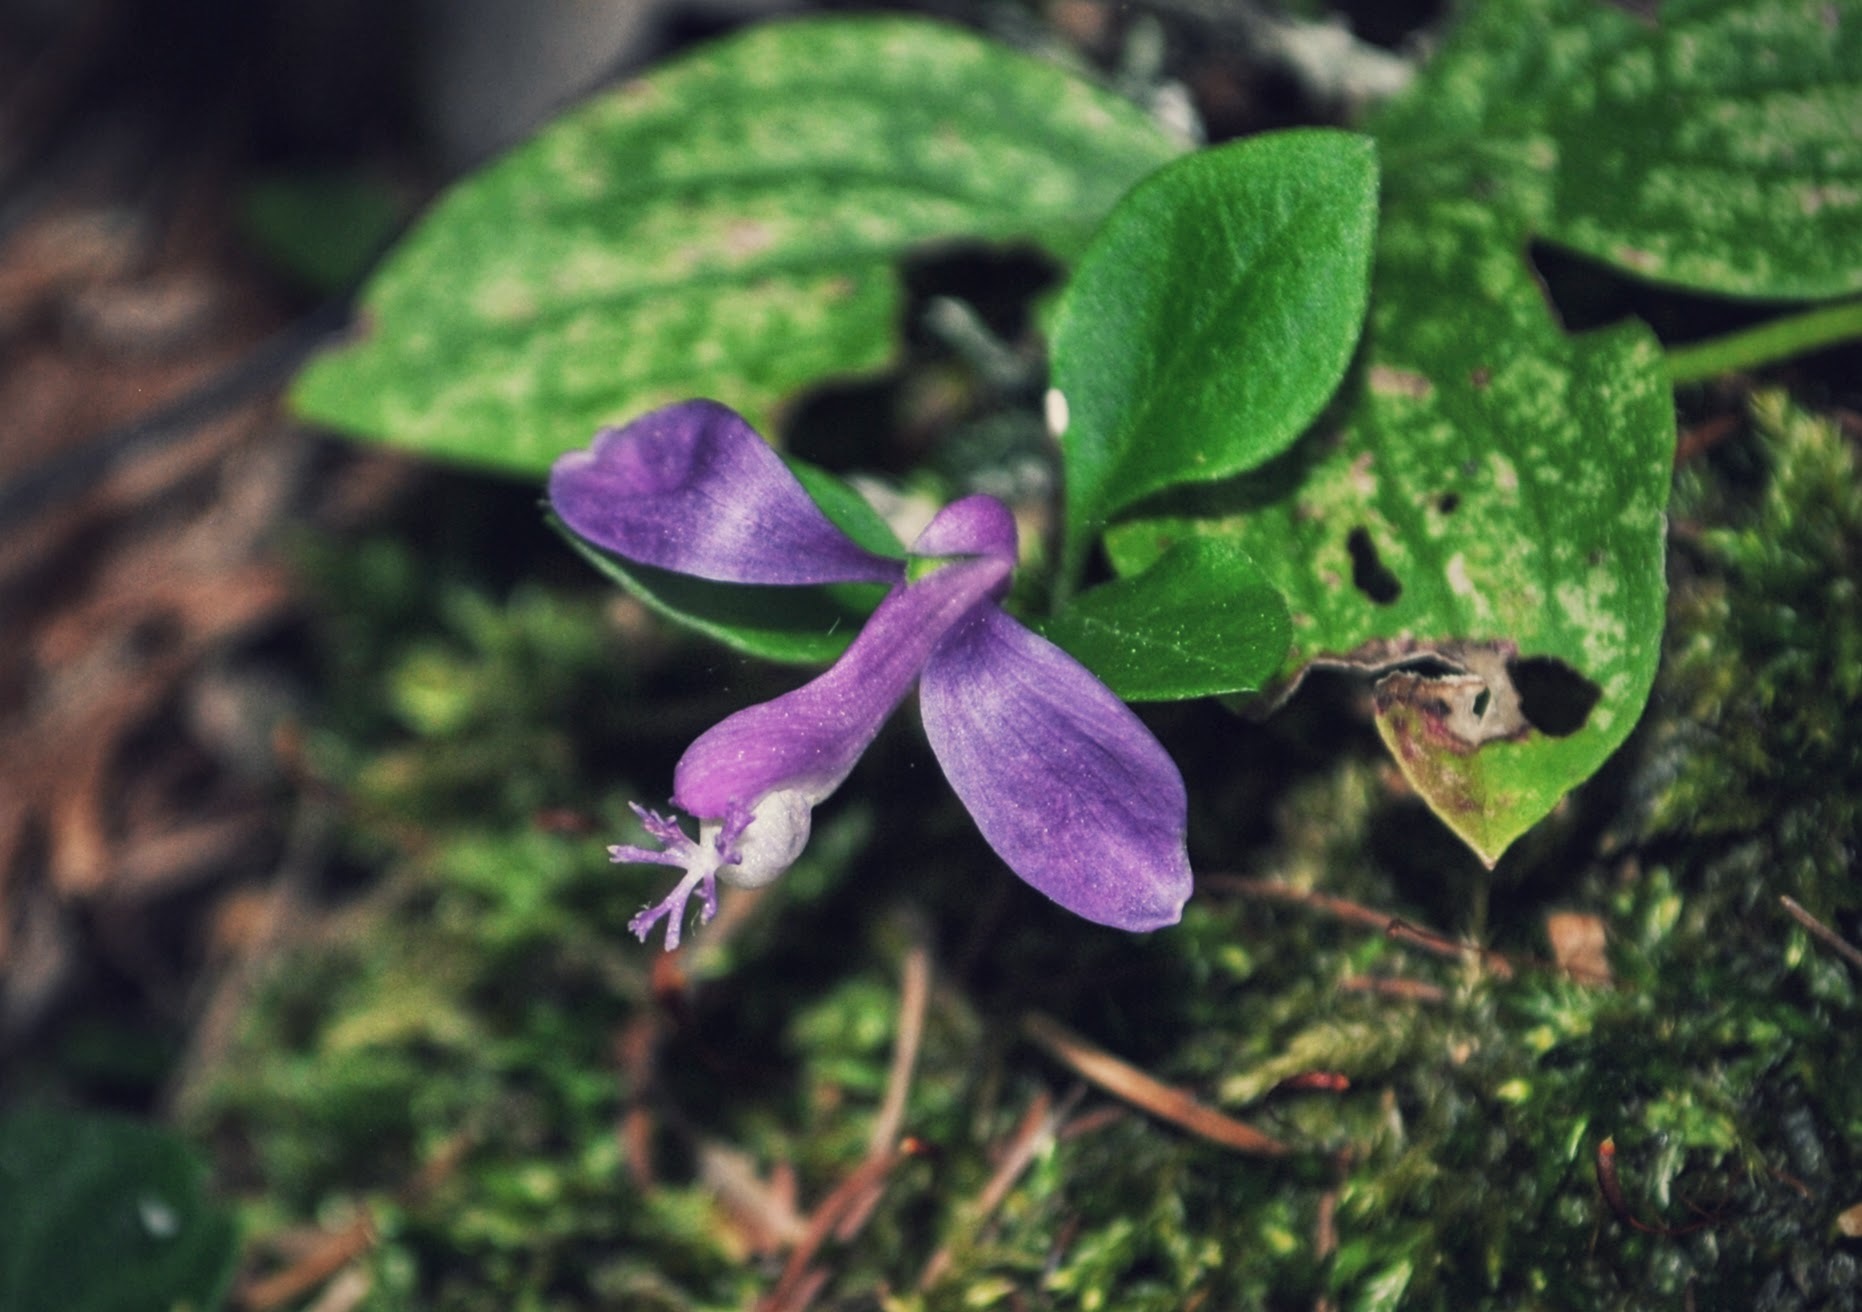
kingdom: Plantae
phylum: Tracheophyta
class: Magnoliopsida
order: Fabales
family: Polygalaceae
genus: Polygaloides
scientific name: Polygaloides paucifolia
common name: Bird-on-the-wing
